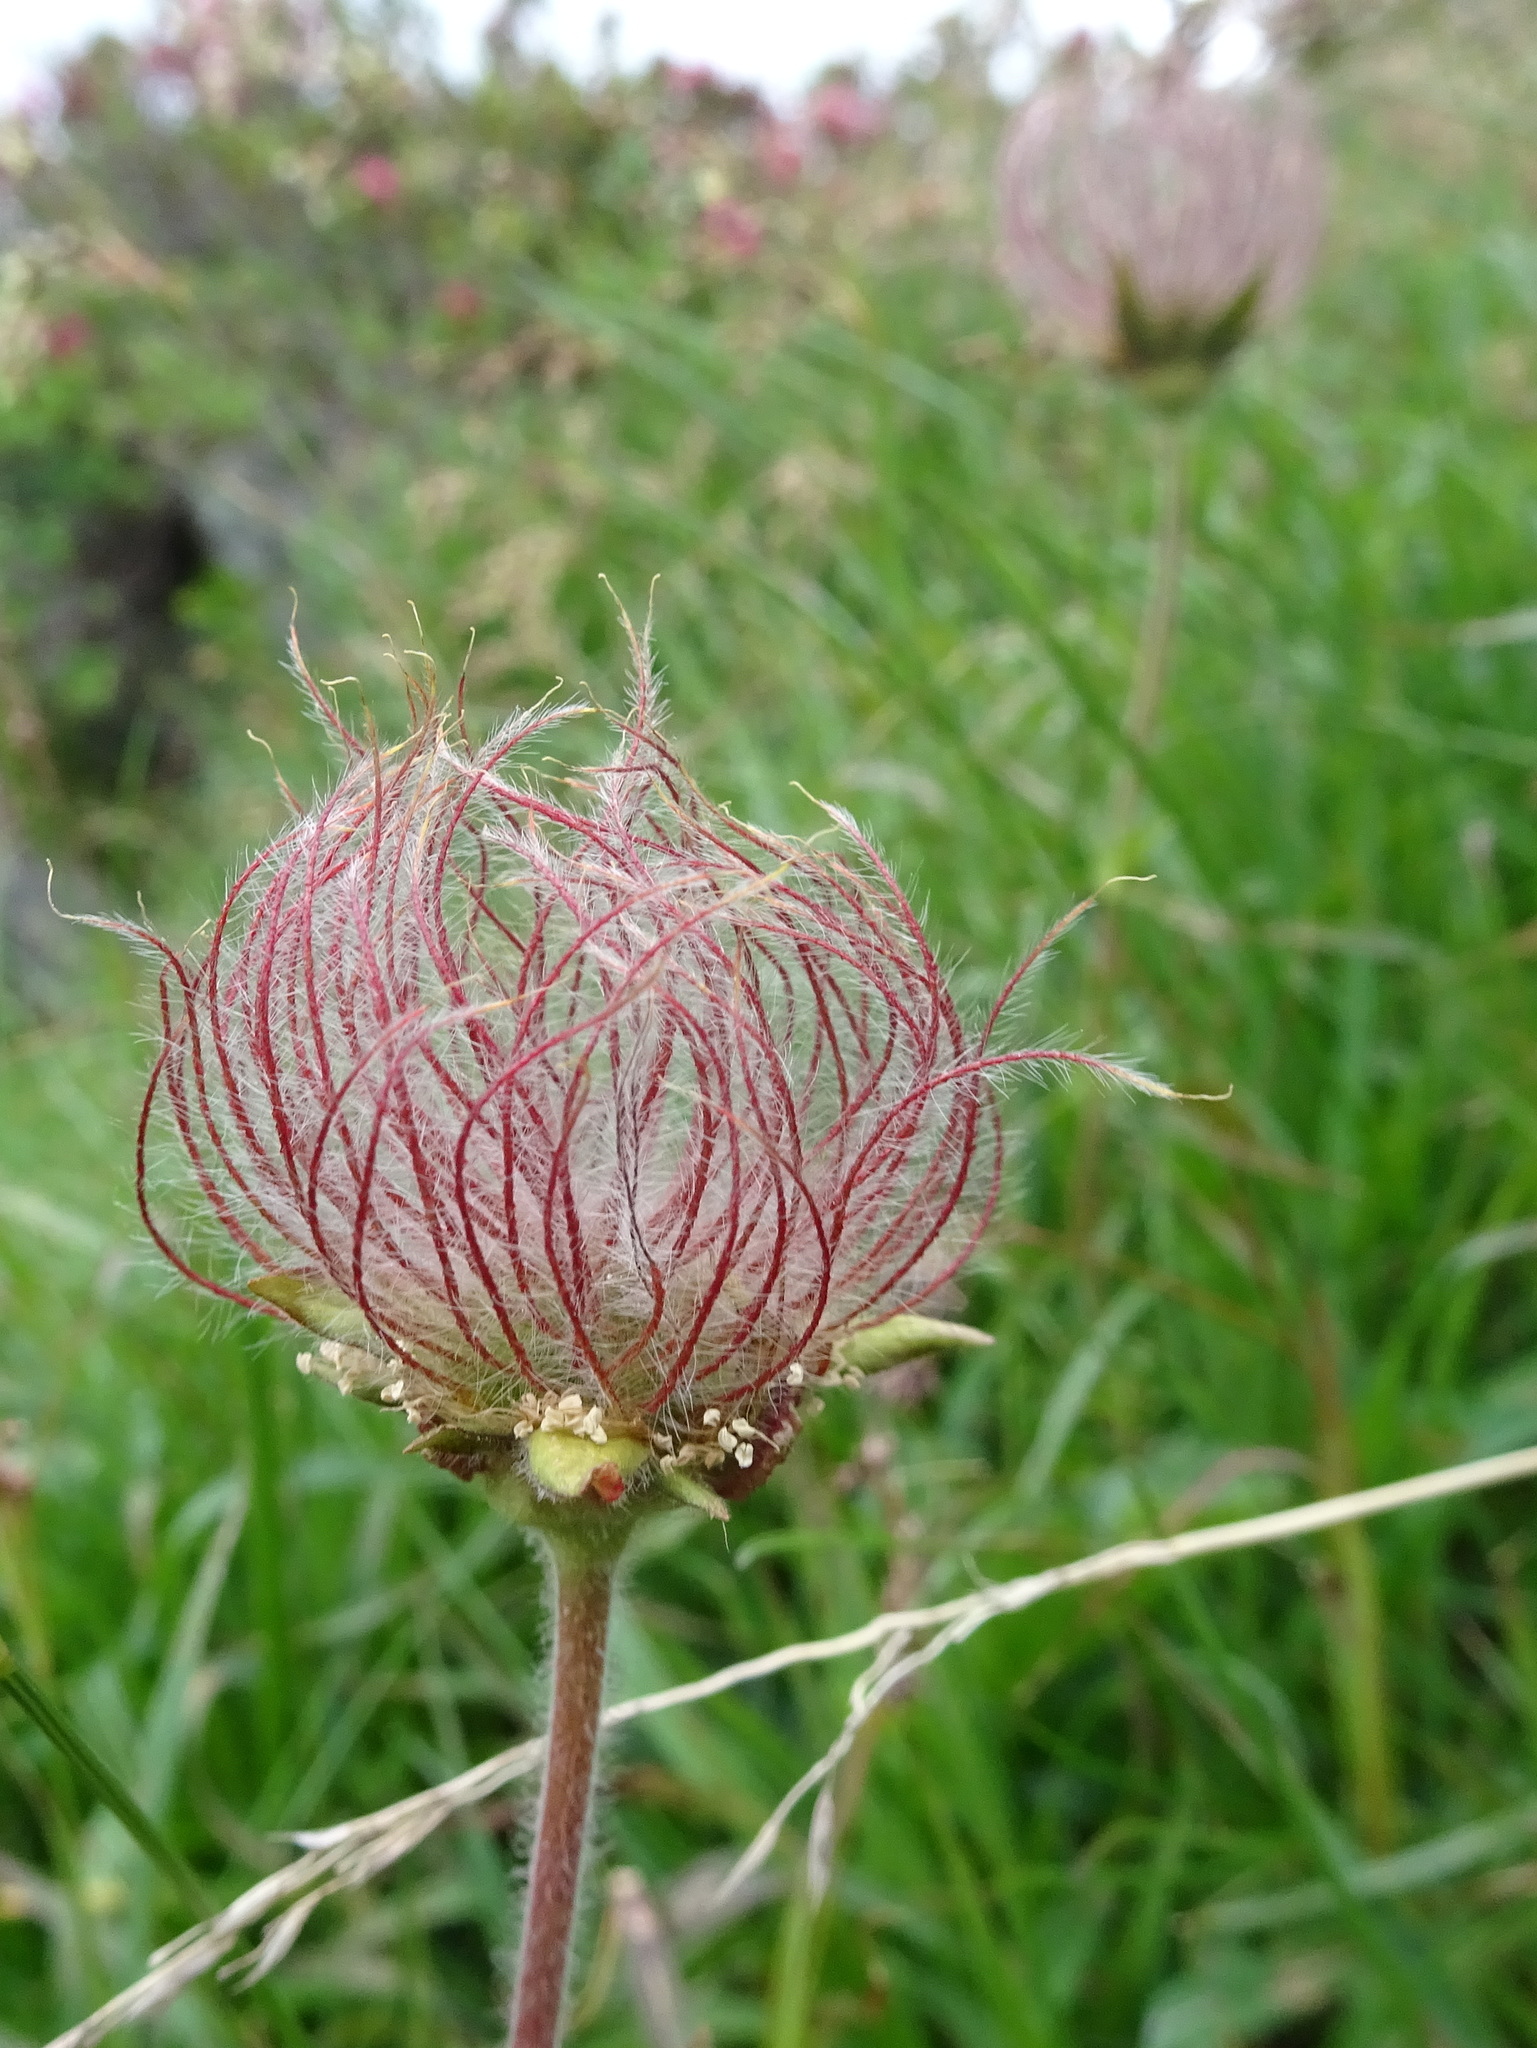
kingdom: Plantae
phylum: Tracheophyta
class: Magnoliopsida
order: Rosales
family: Rosaceae
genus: Geum
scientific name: Geum montanum
